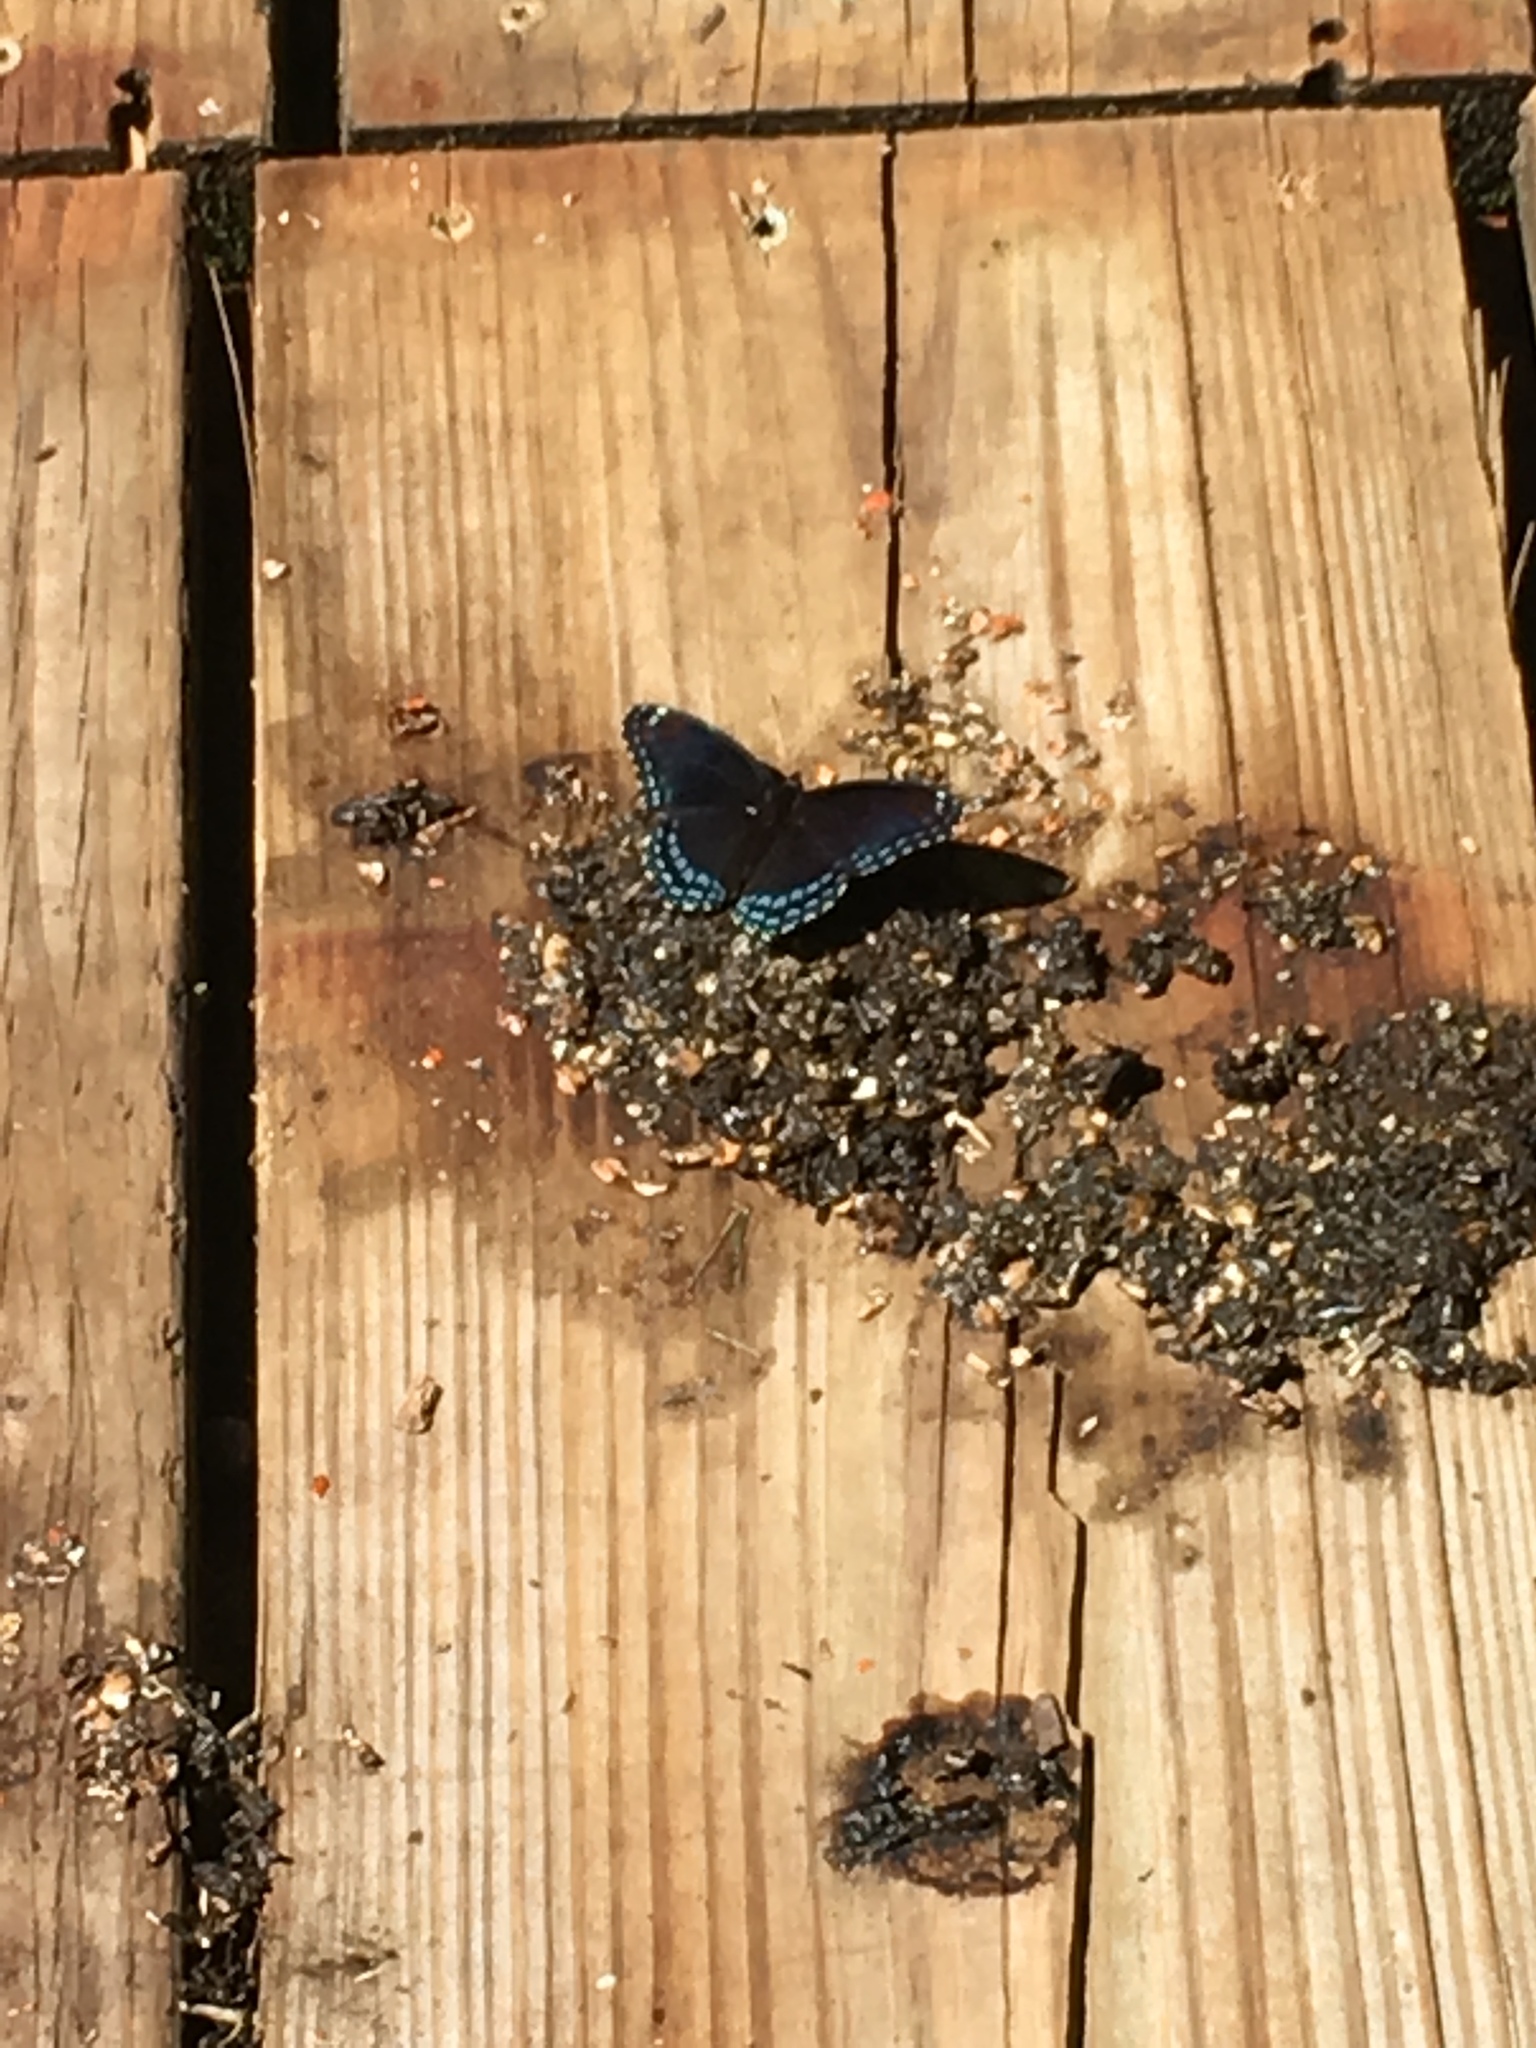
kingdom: Animalia
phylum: Arthropoda
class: Insecta
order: Lepidoptera
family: Nymphalidae
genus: Limenitis
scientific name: Limenitis arthemis
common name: Red-spotted admiral
